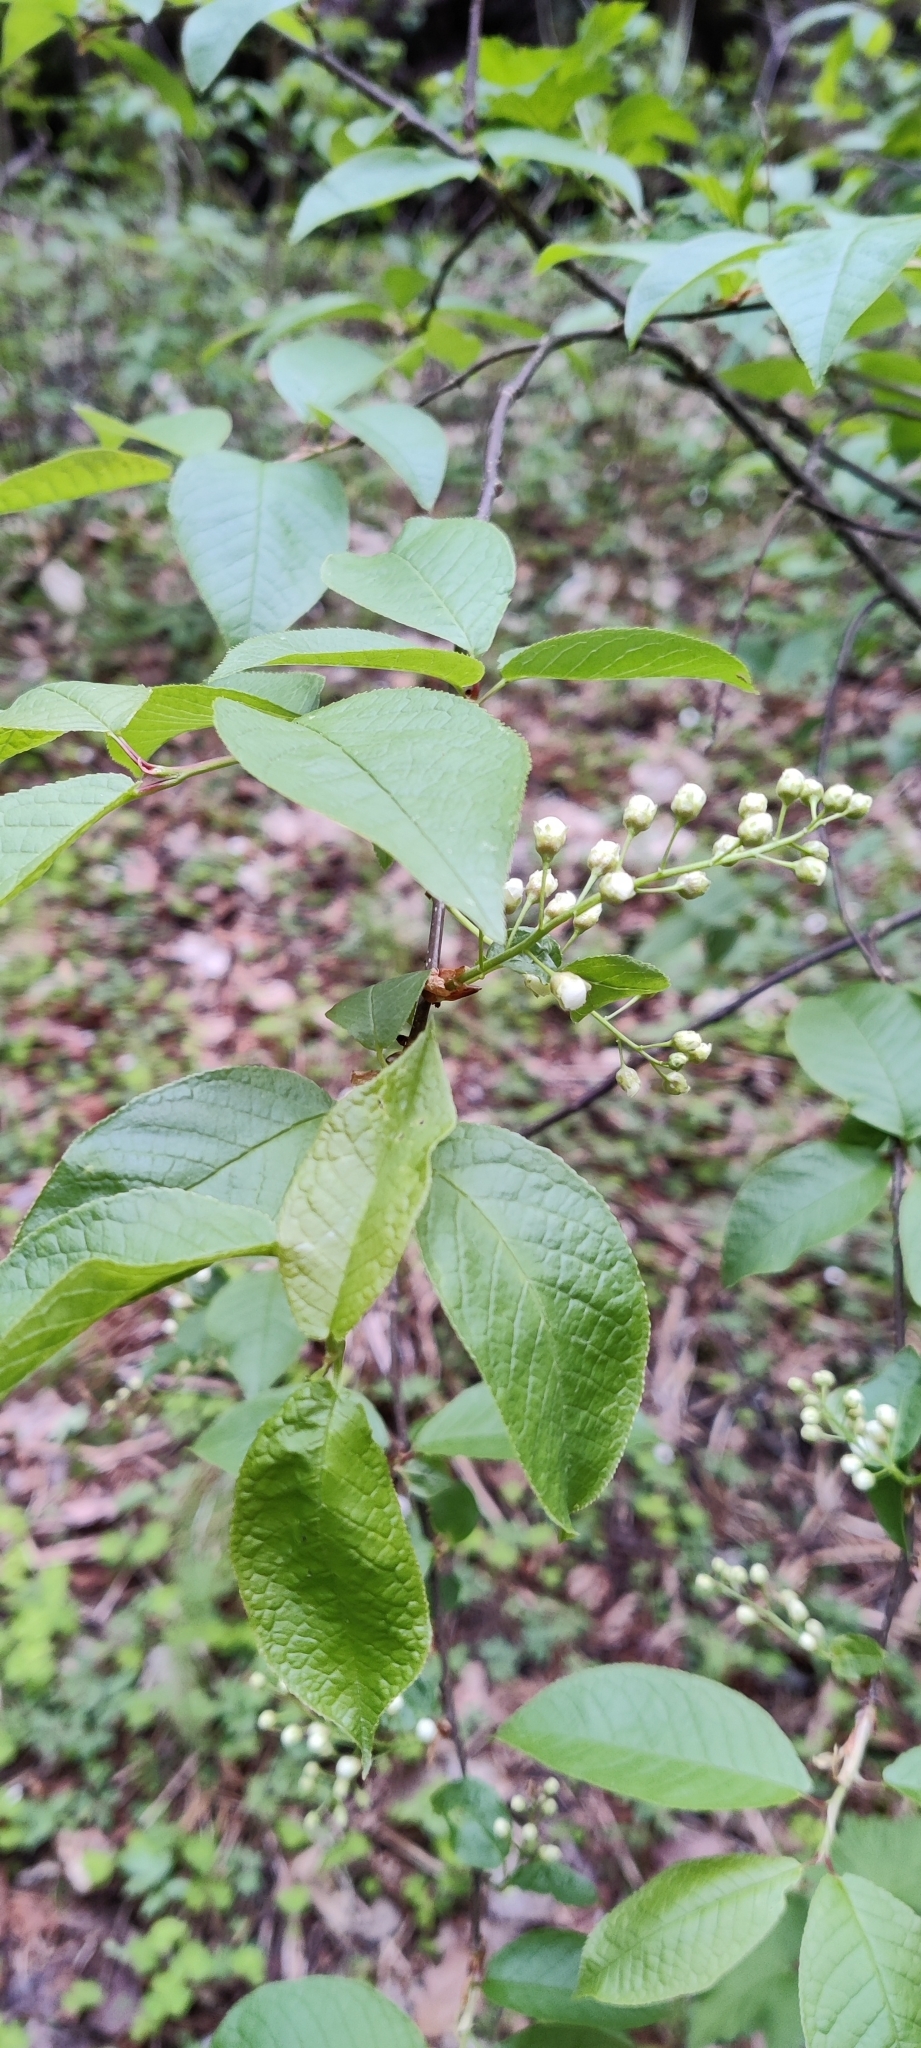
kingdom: Plantae
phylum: Tracheophyta
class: Magnoliopsida
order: Rosales
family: Rosaceae
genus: Prunus
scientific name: Prunus padus
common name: Bird cherry
